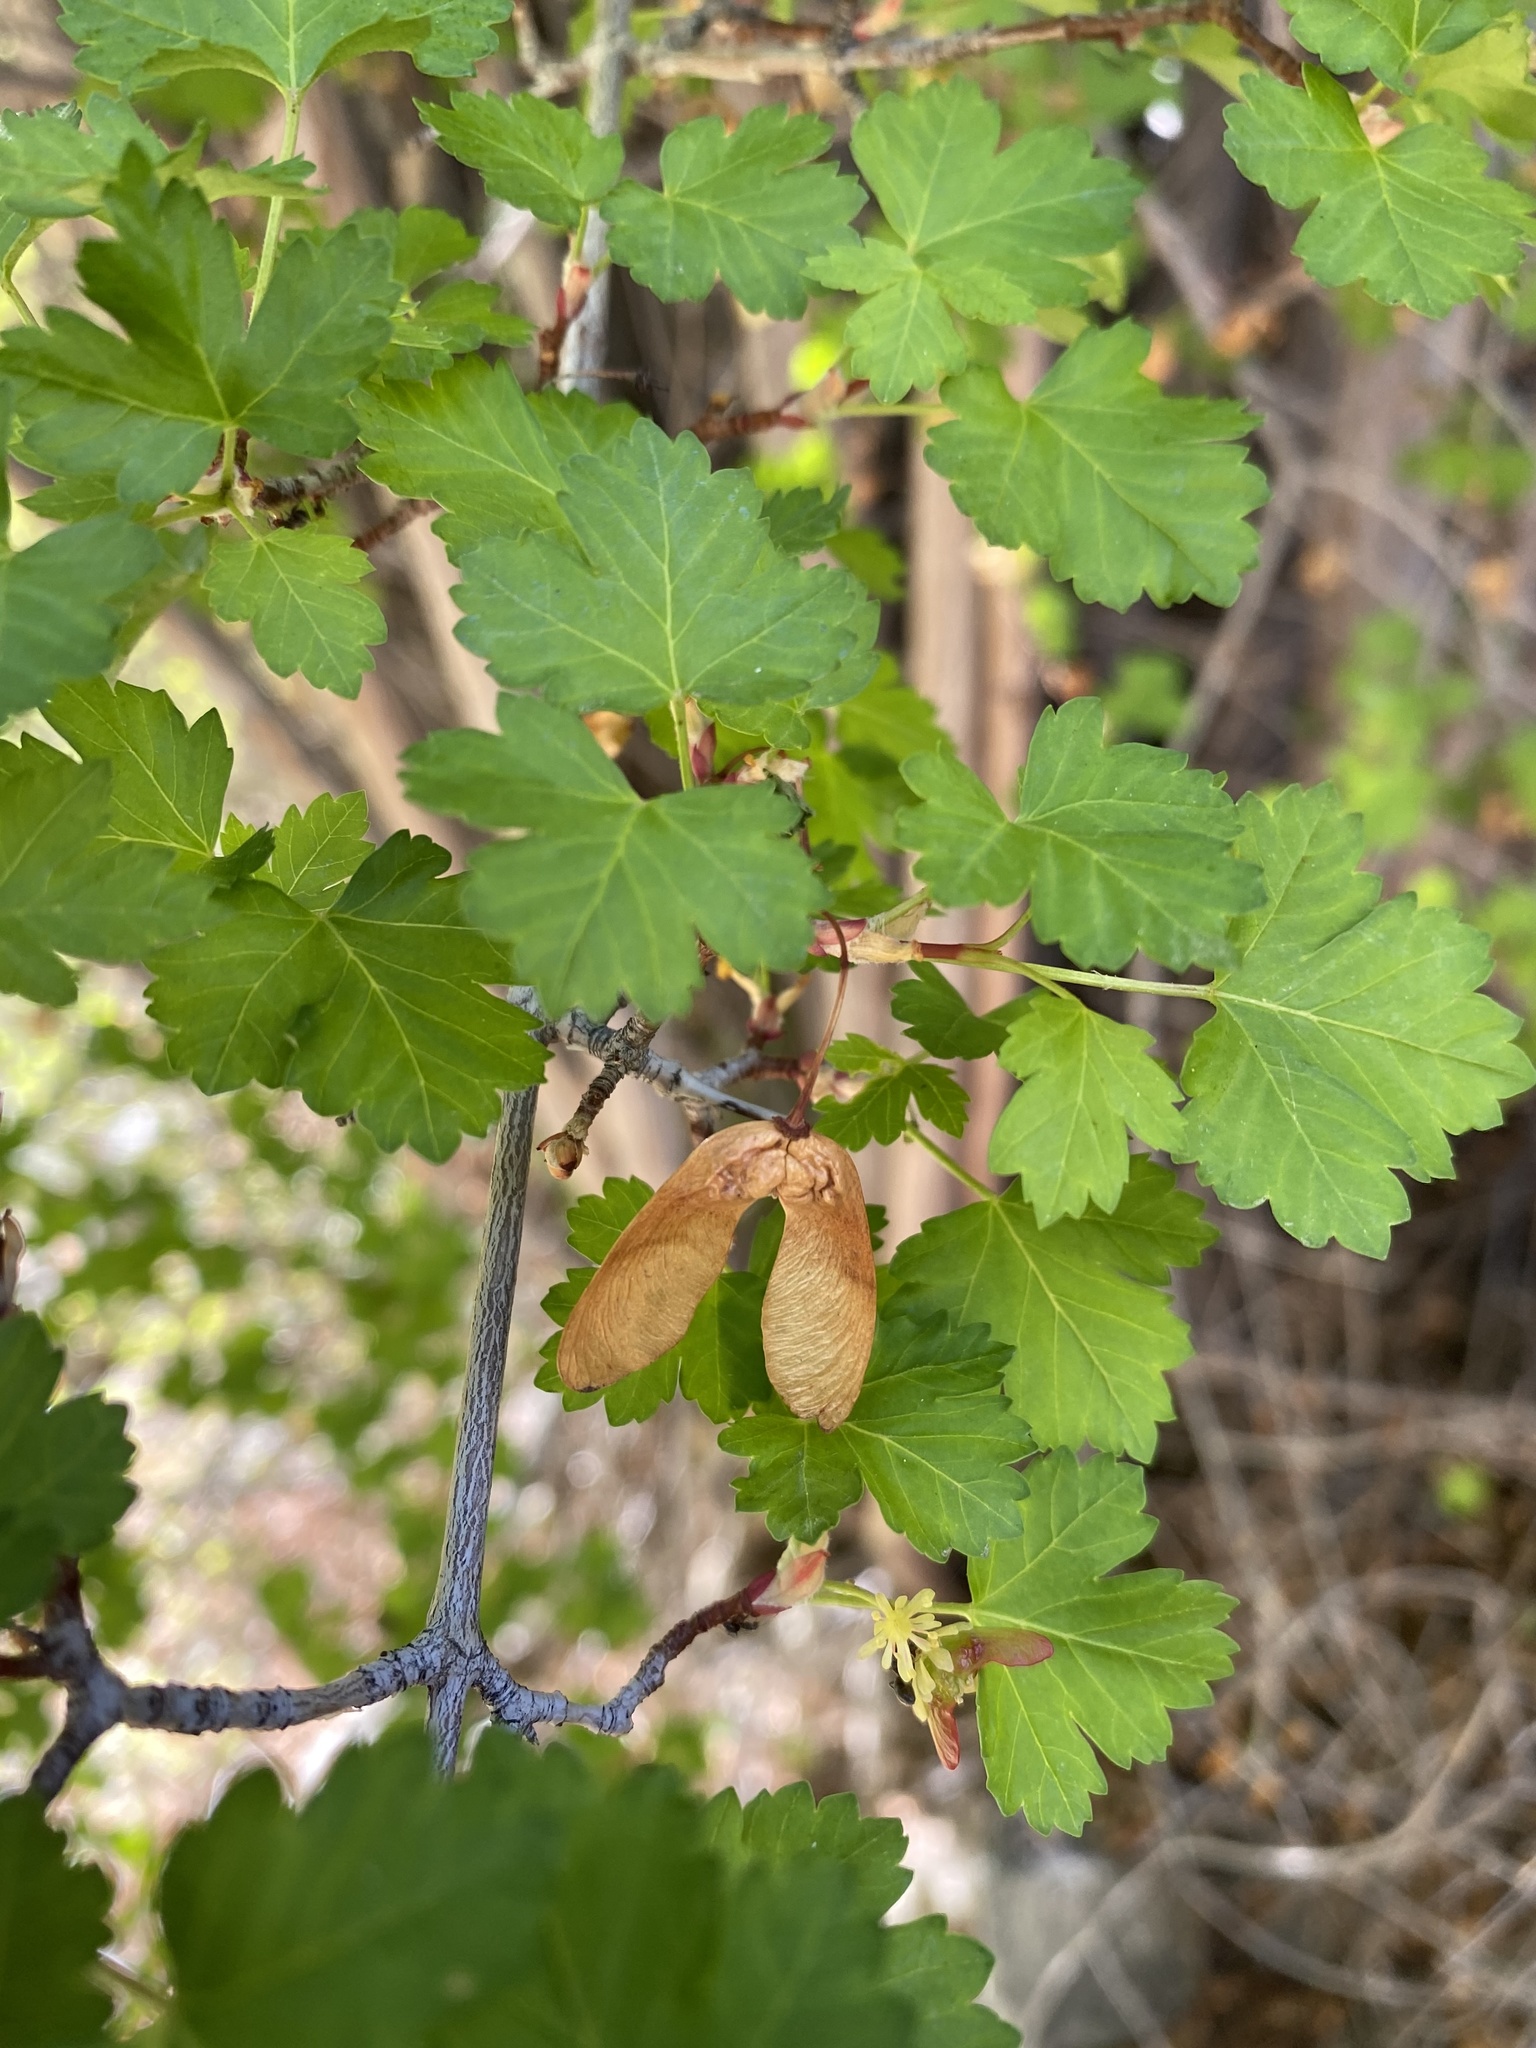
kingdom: Plantae
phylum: Tracheophyta
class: Magnoliopsida
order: Sapindales
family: Sapindaceae
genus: Acer
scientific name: Acer glabrum
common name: Rocky mountain maple
